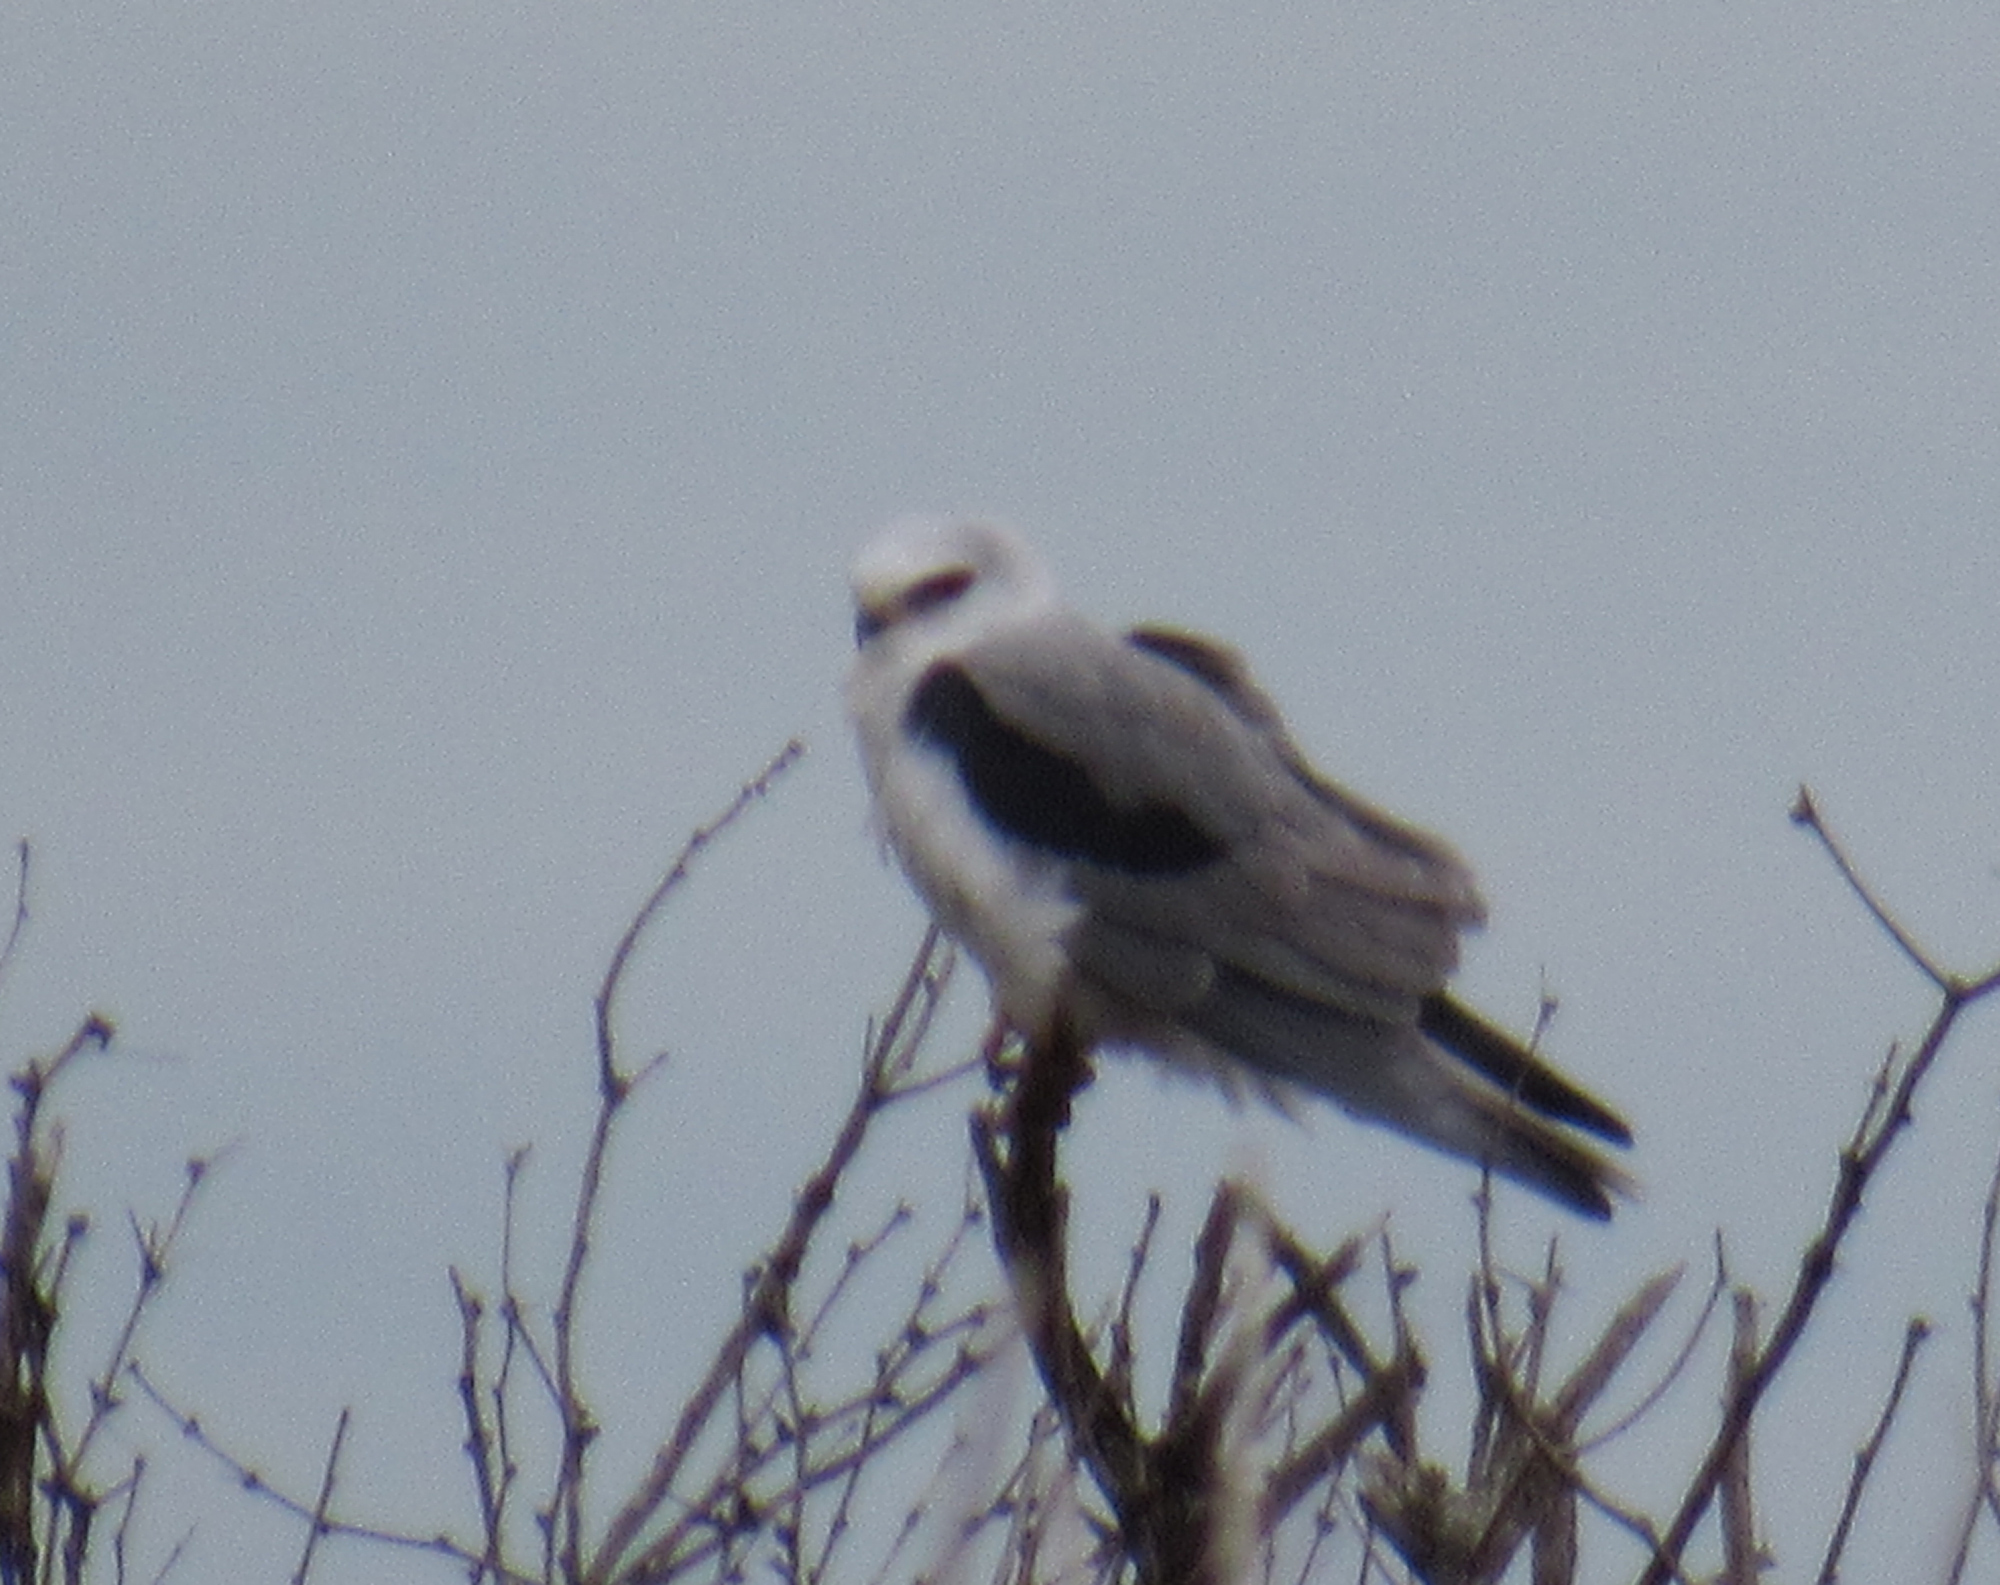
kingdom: Animalia
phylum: Chordata
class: Aves
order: Accipitriformes
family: Accipitridae
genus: Elanus
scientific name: Elanus leucurus
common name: White-tailed kite
